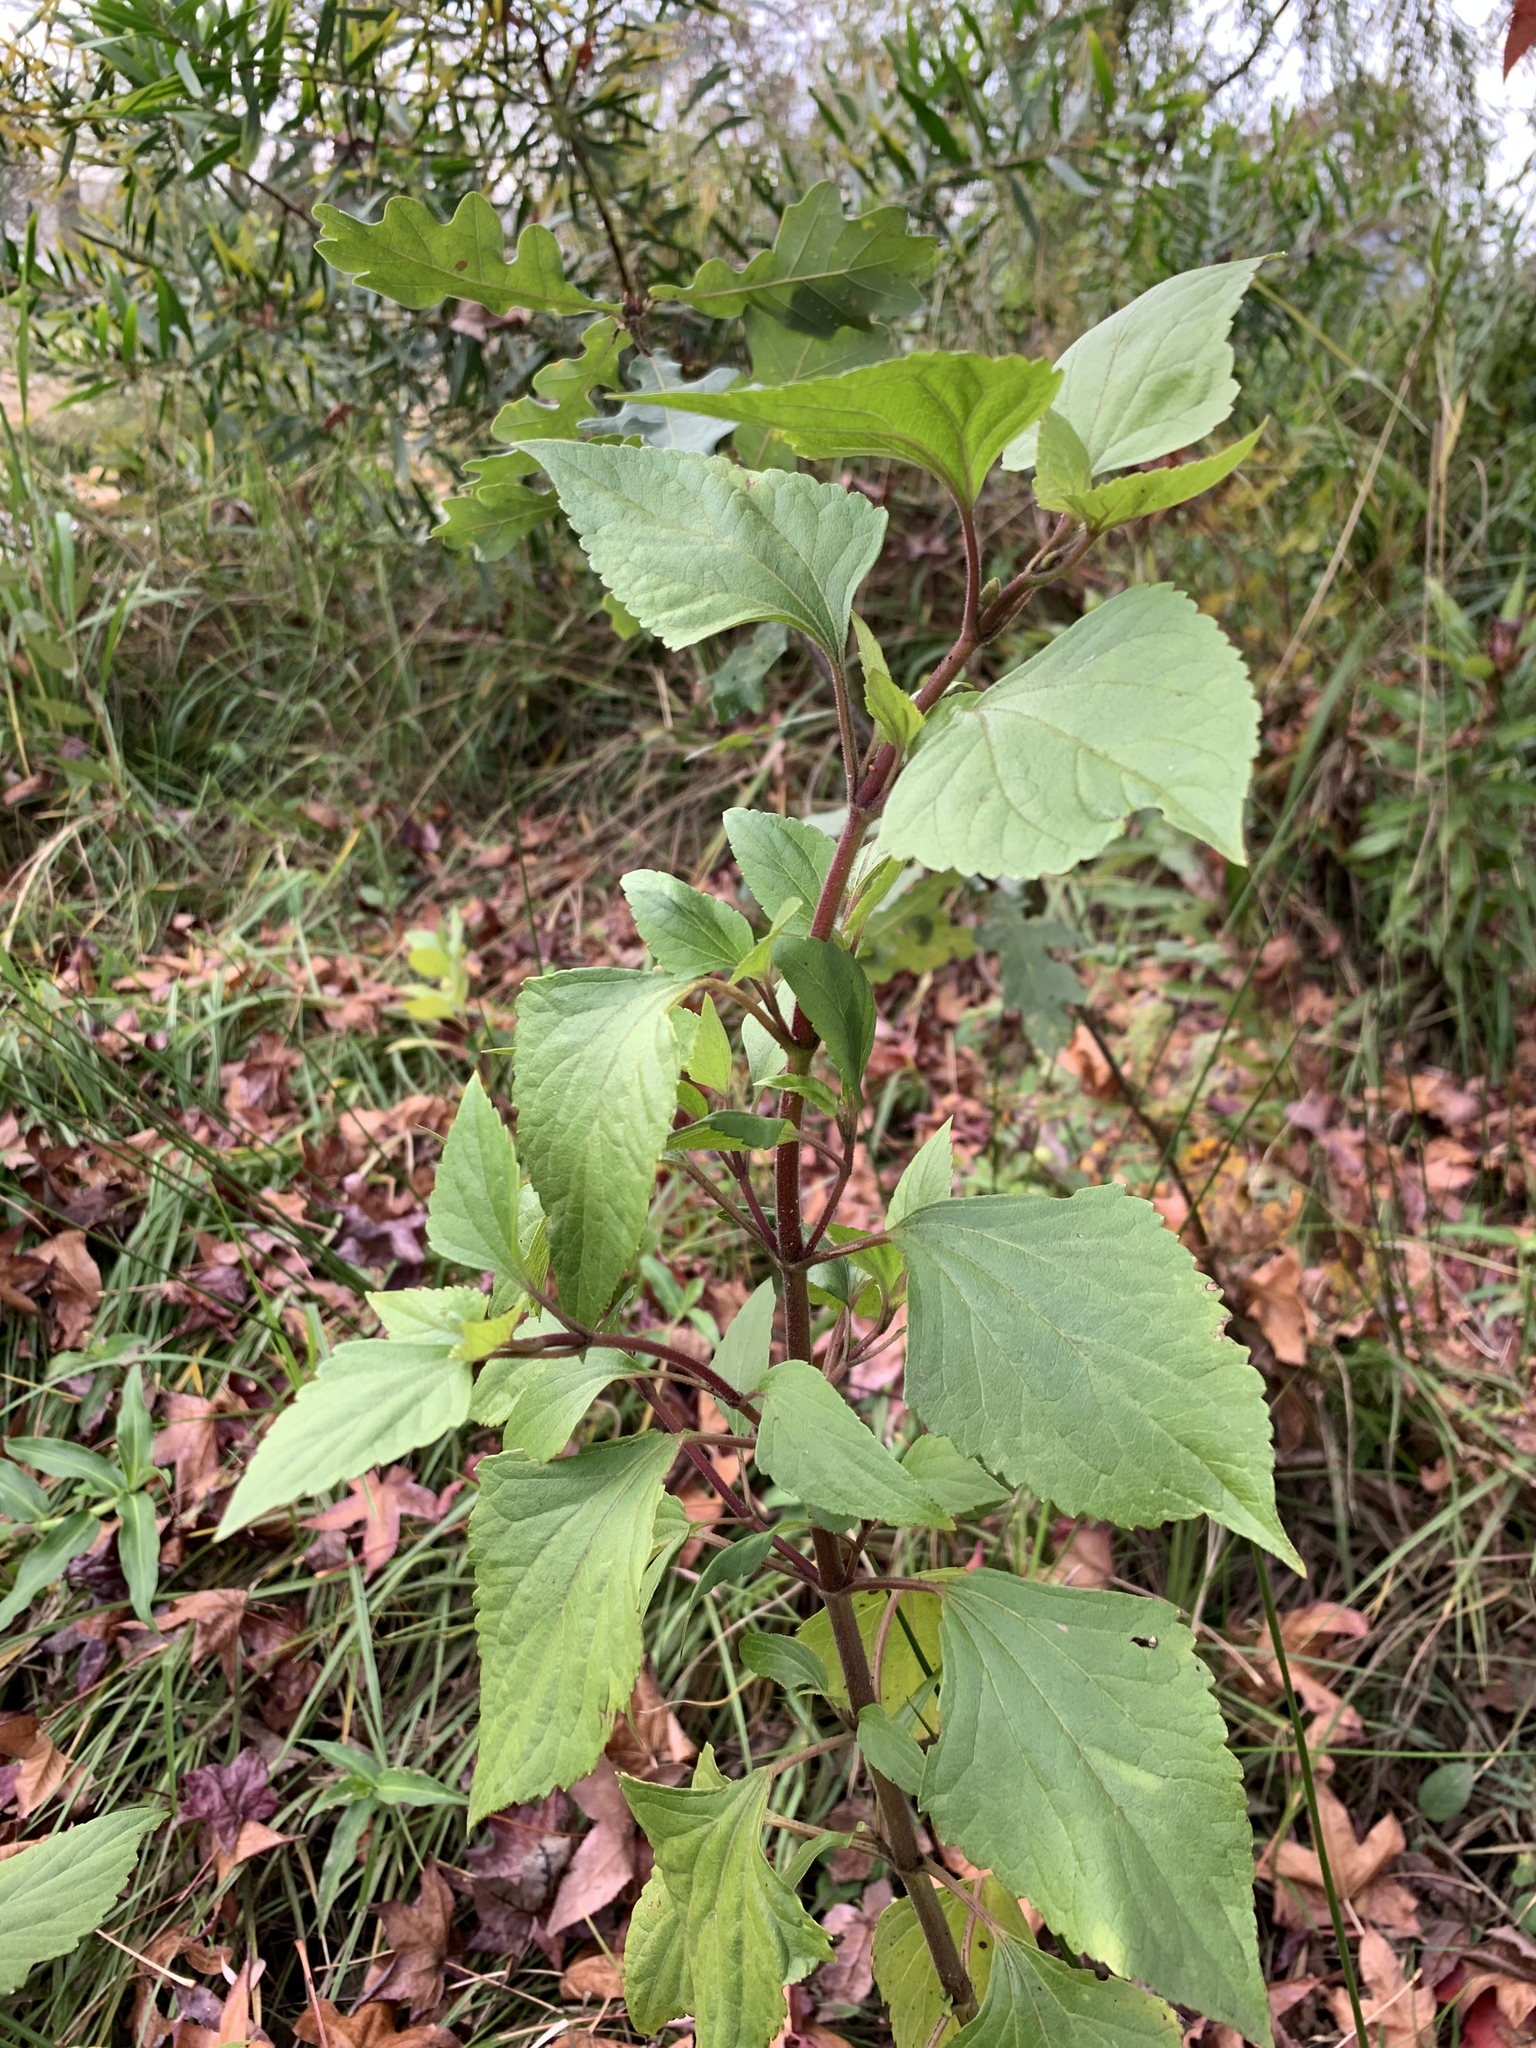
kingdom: Plantae
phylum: Tracheophyta
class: Magnoliopsida
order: Asterales
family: Asteraceae
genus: Ageratina
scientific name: Ageratina adenophora
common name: Sticky snakeroot
